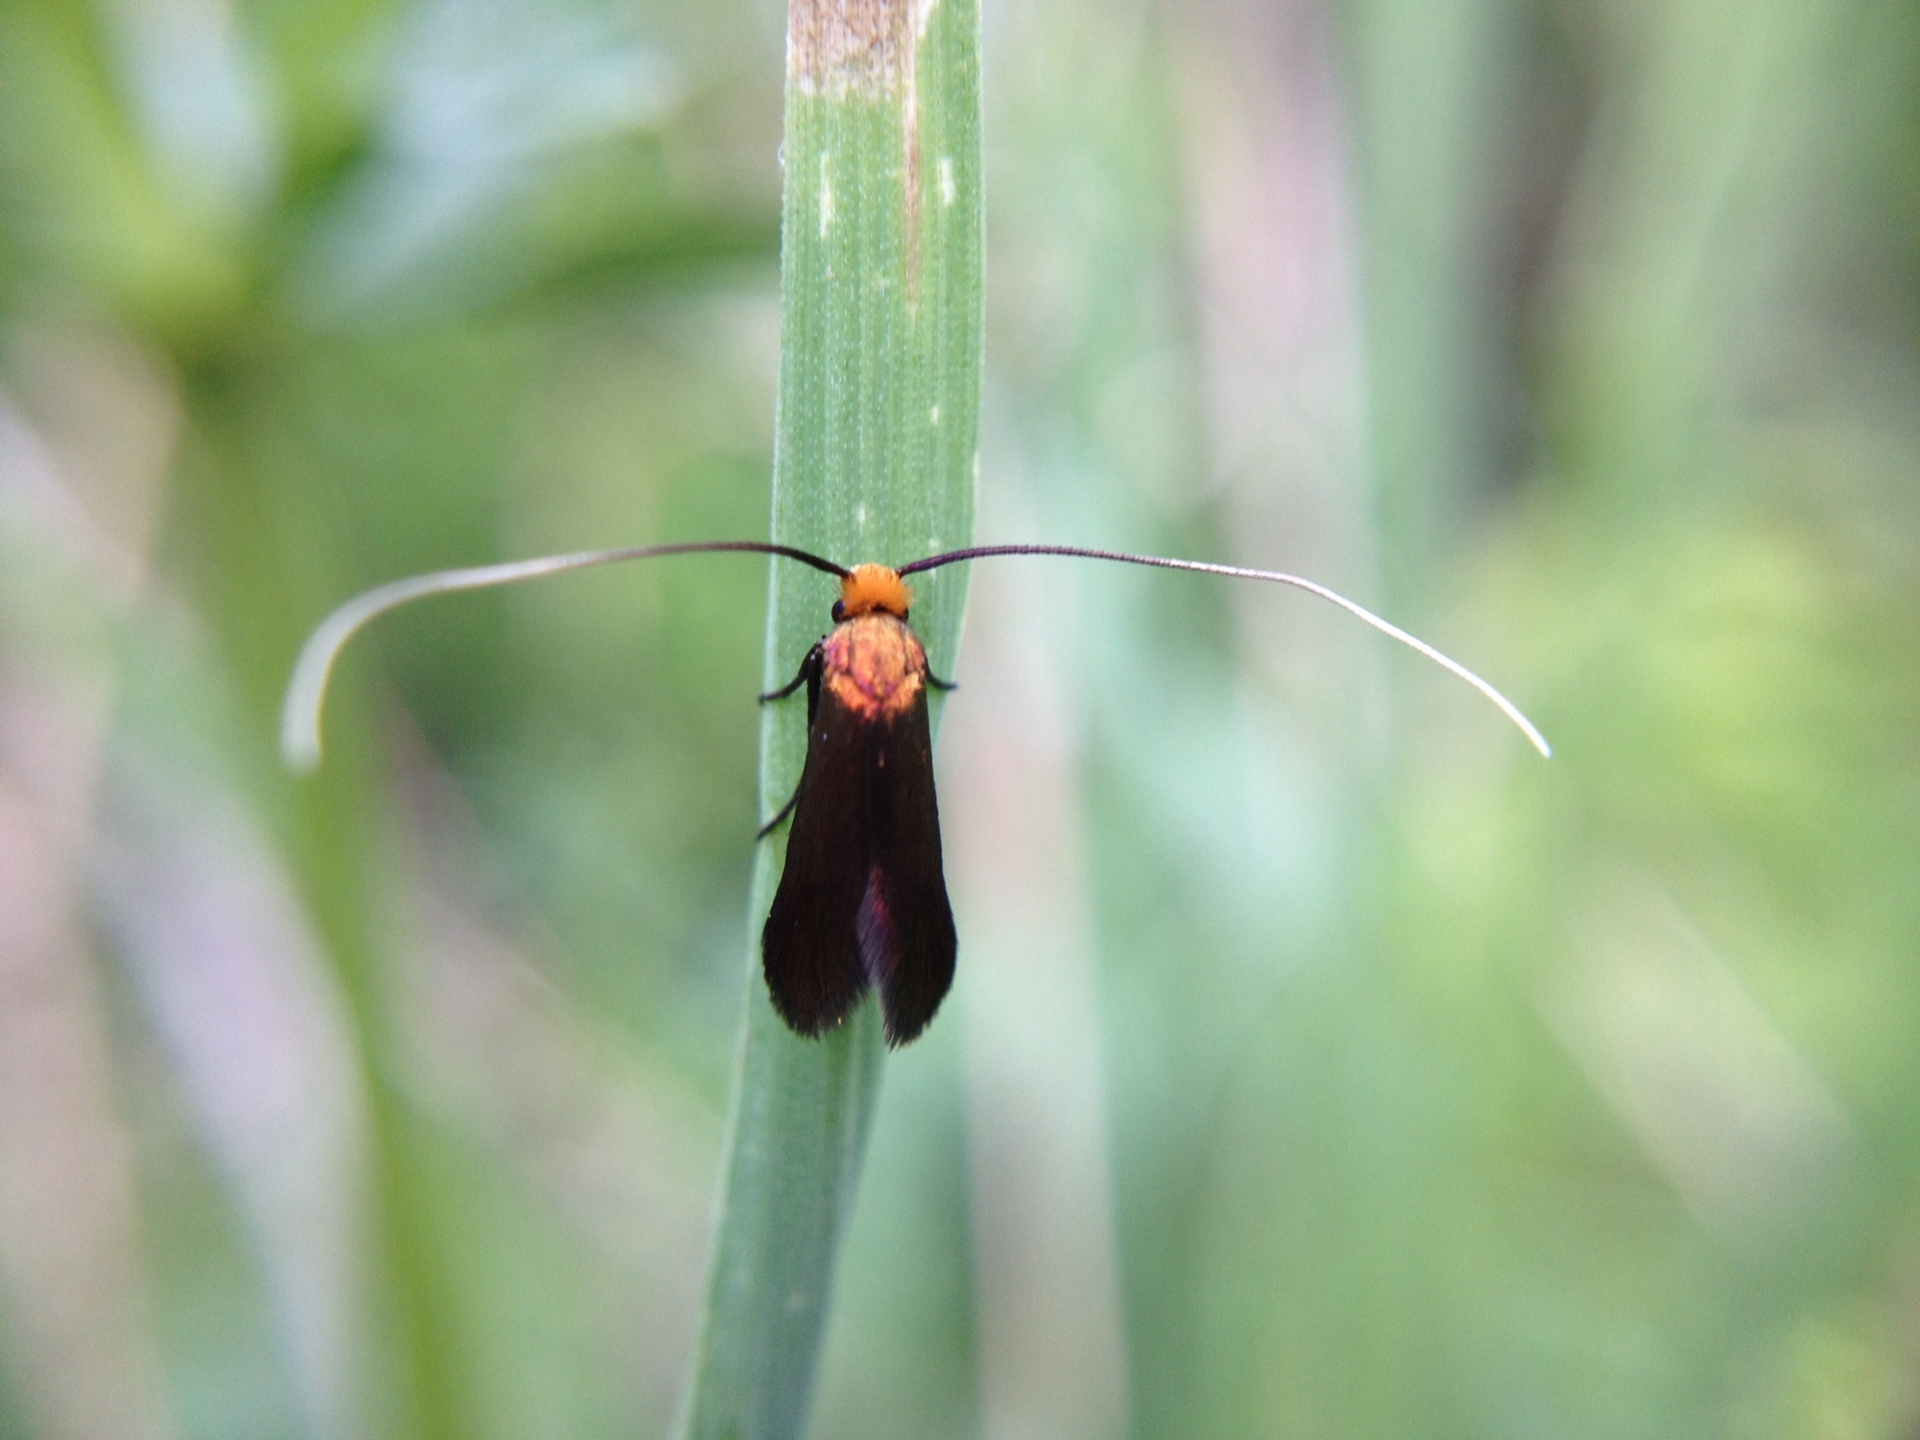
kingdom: Animalia
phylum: Arthropoda
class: Insecta
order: Lepidoptera
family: Adelidae
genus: Cauchas
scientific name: Cauchas canalella
